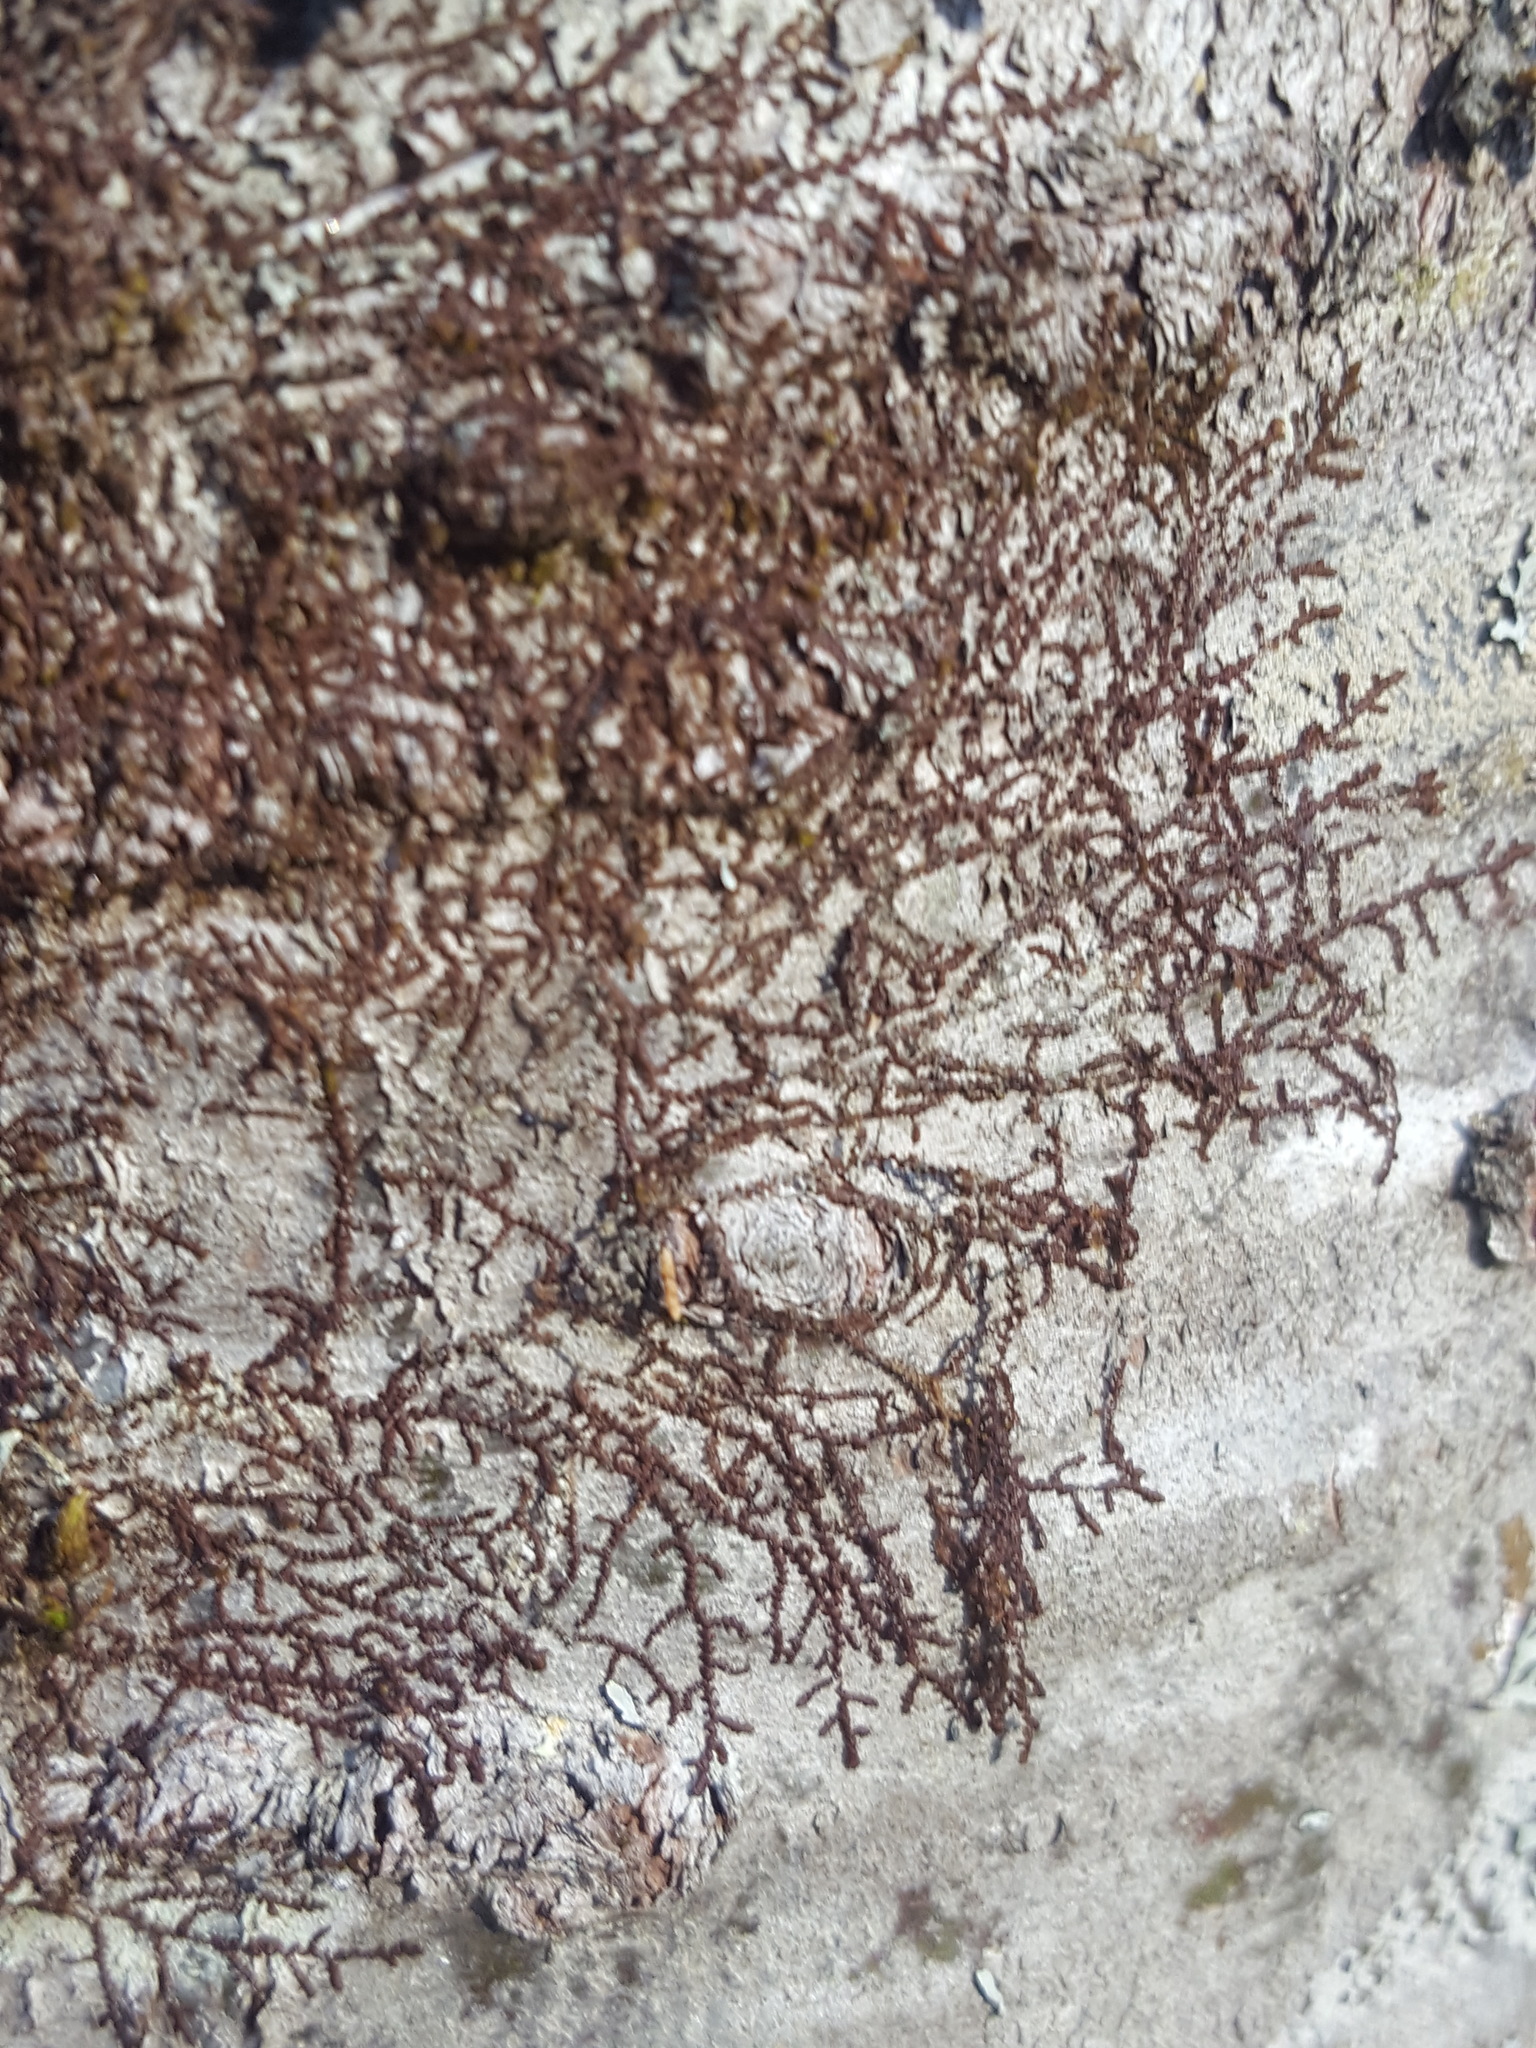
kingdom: Plantae
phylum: Marchantiophyta
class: Jungermanniopsida
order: Porellales
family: Frullaniaceae
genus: Frullania
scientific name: Frullania eboracensis
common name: New york scalewort
